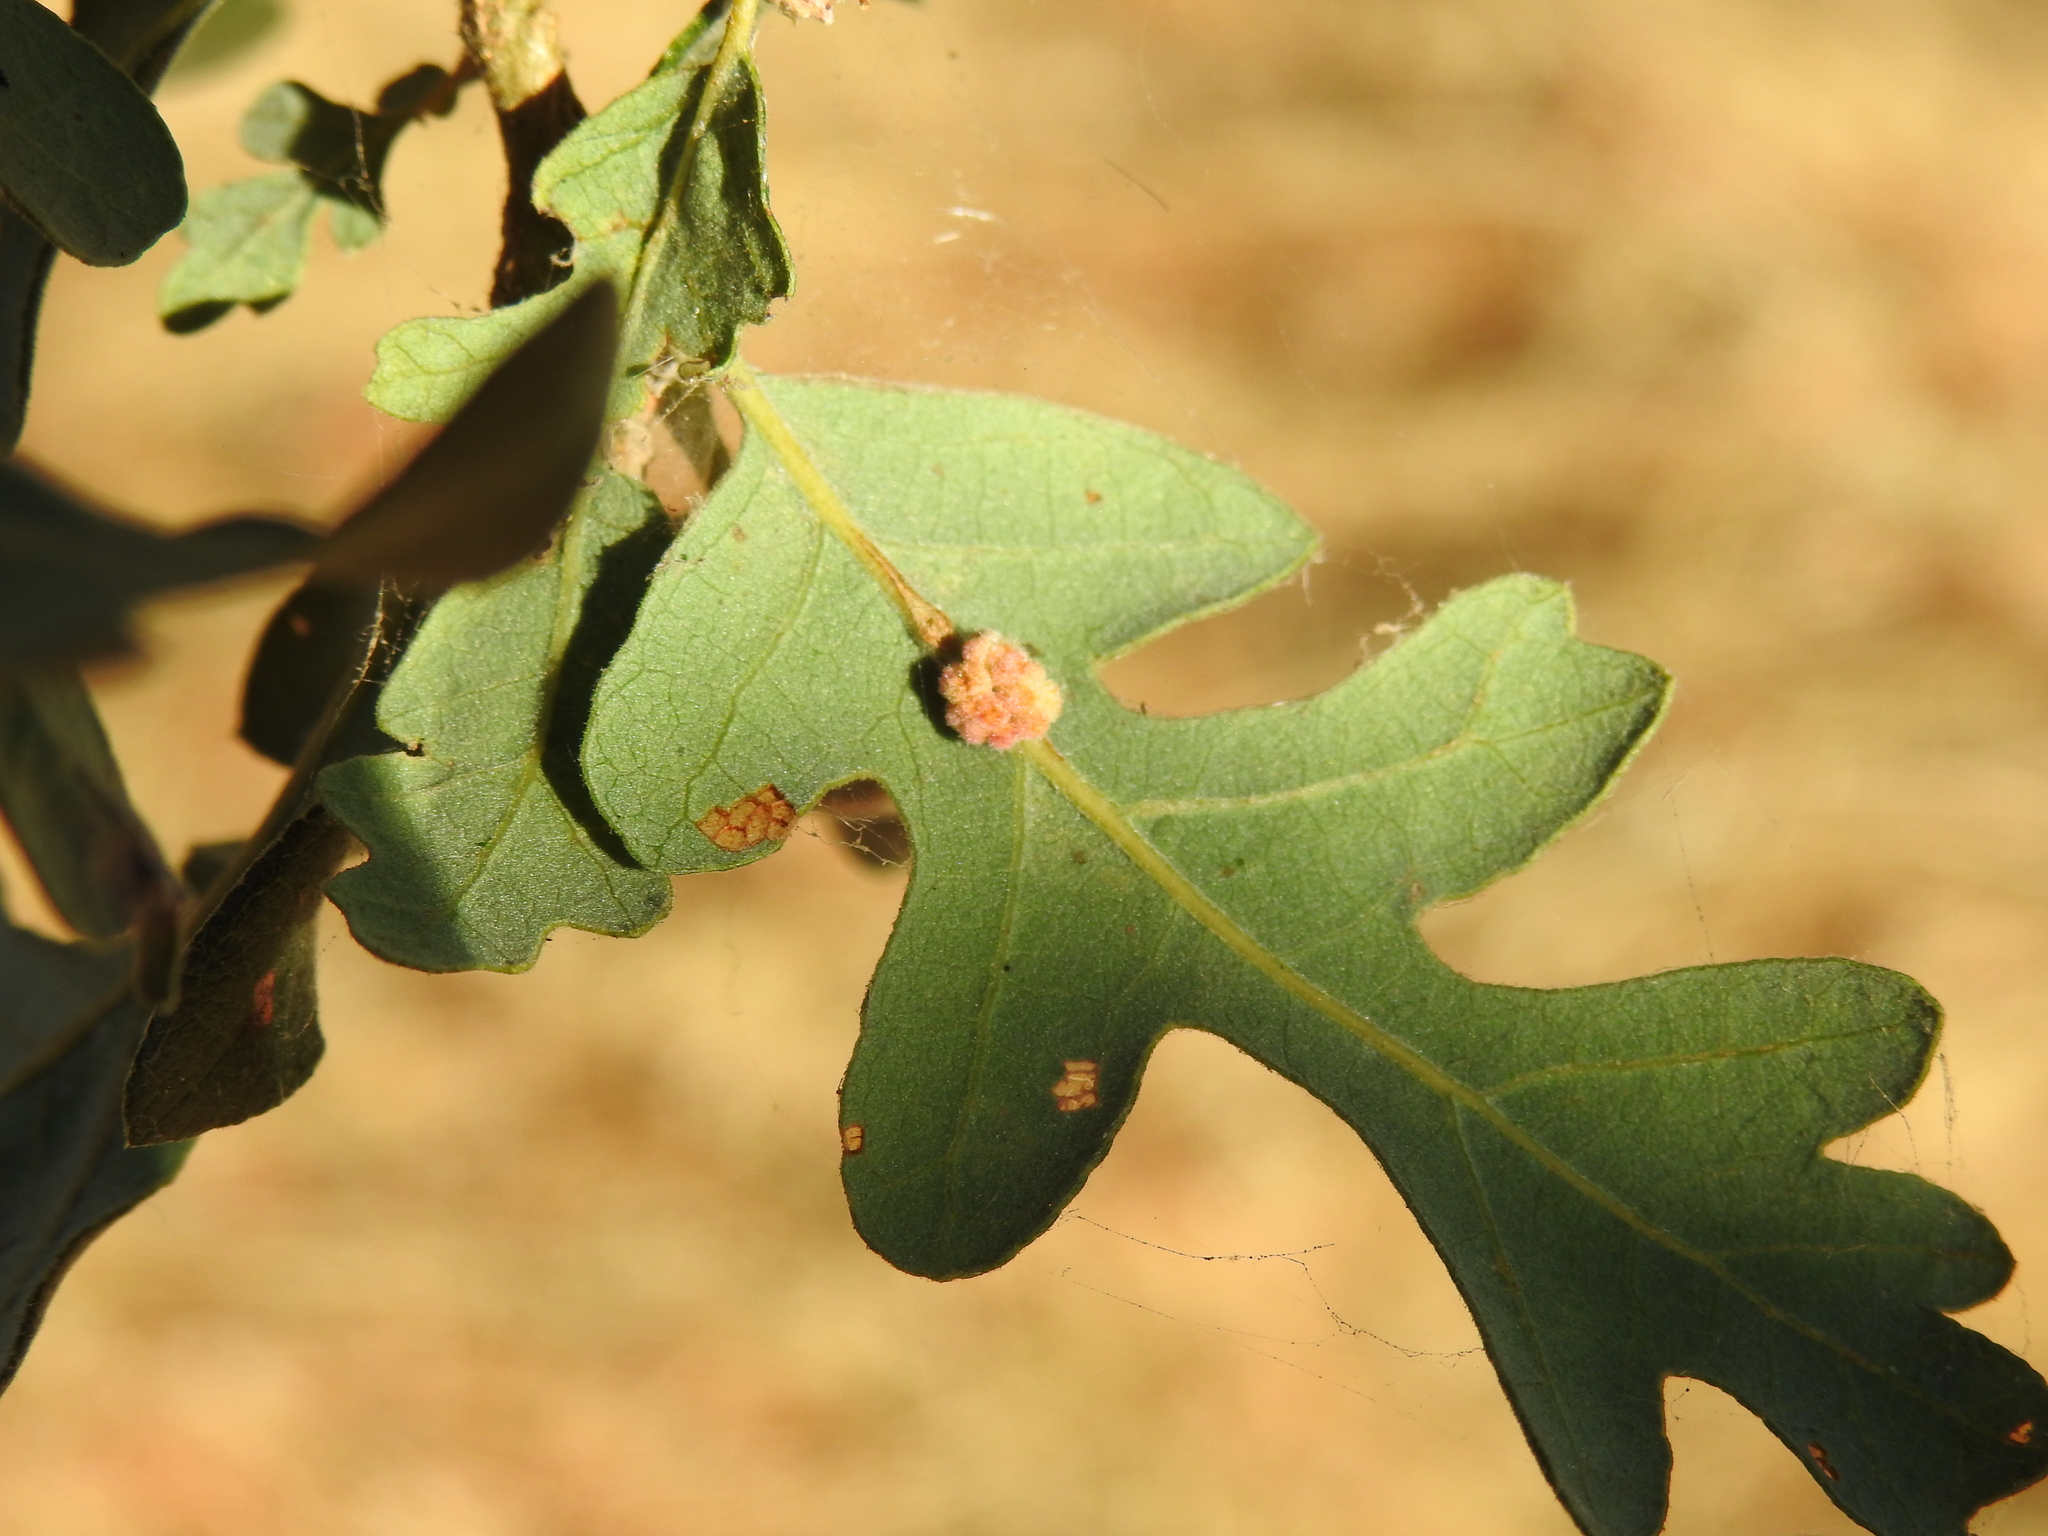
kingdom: Animalia
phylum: Arthropoda
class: Insecta
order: Hymenoptera
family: Cynipidae
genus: Andricus
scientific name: Andricus
